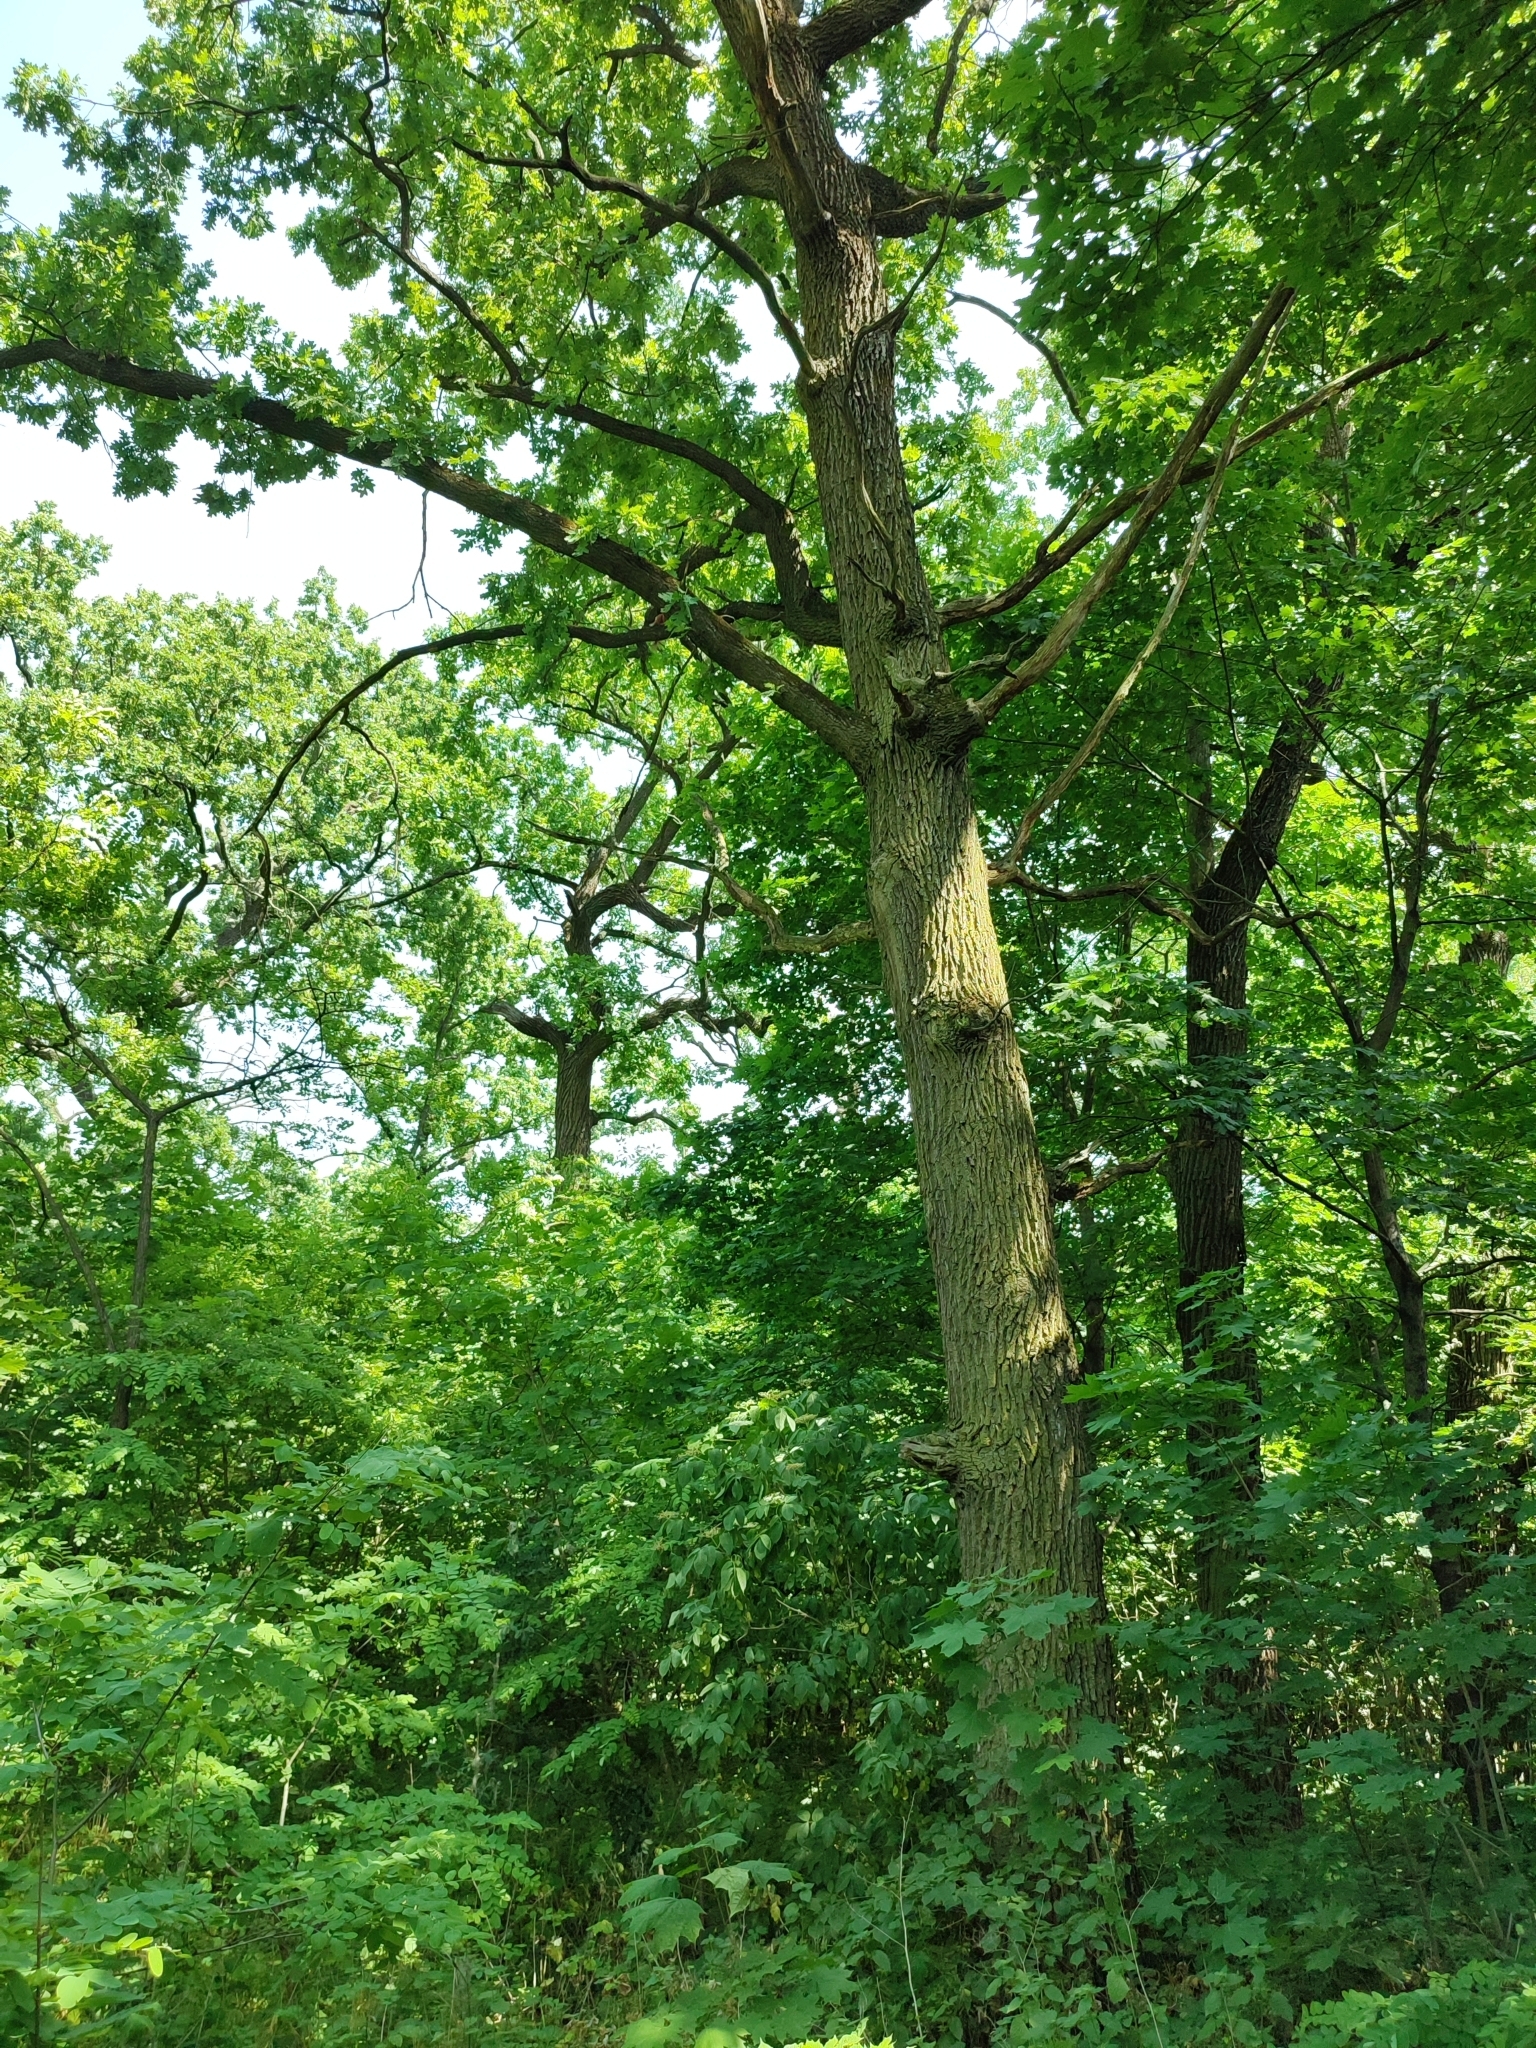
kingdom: Plantae
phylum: Tracheophyta
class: Magnoliopsida
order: Fagales
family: Fagaceae
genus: Quercus
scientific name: Quercus robur
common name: Pedunculate oak
